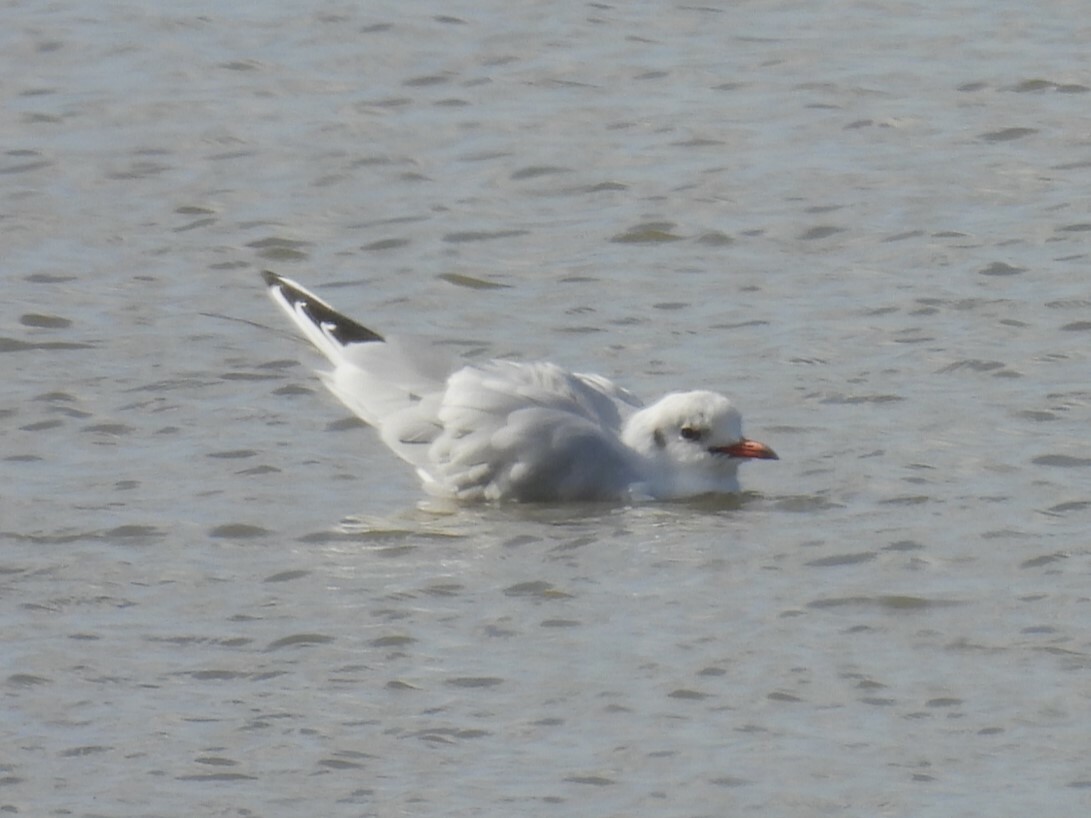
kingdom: Animalia
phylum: Chordata
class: Aves
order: Charadriiformes
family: Laridae
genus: Chroicocephalus
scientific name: Chroicocephalus ridibundus
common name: Black-headed gull
